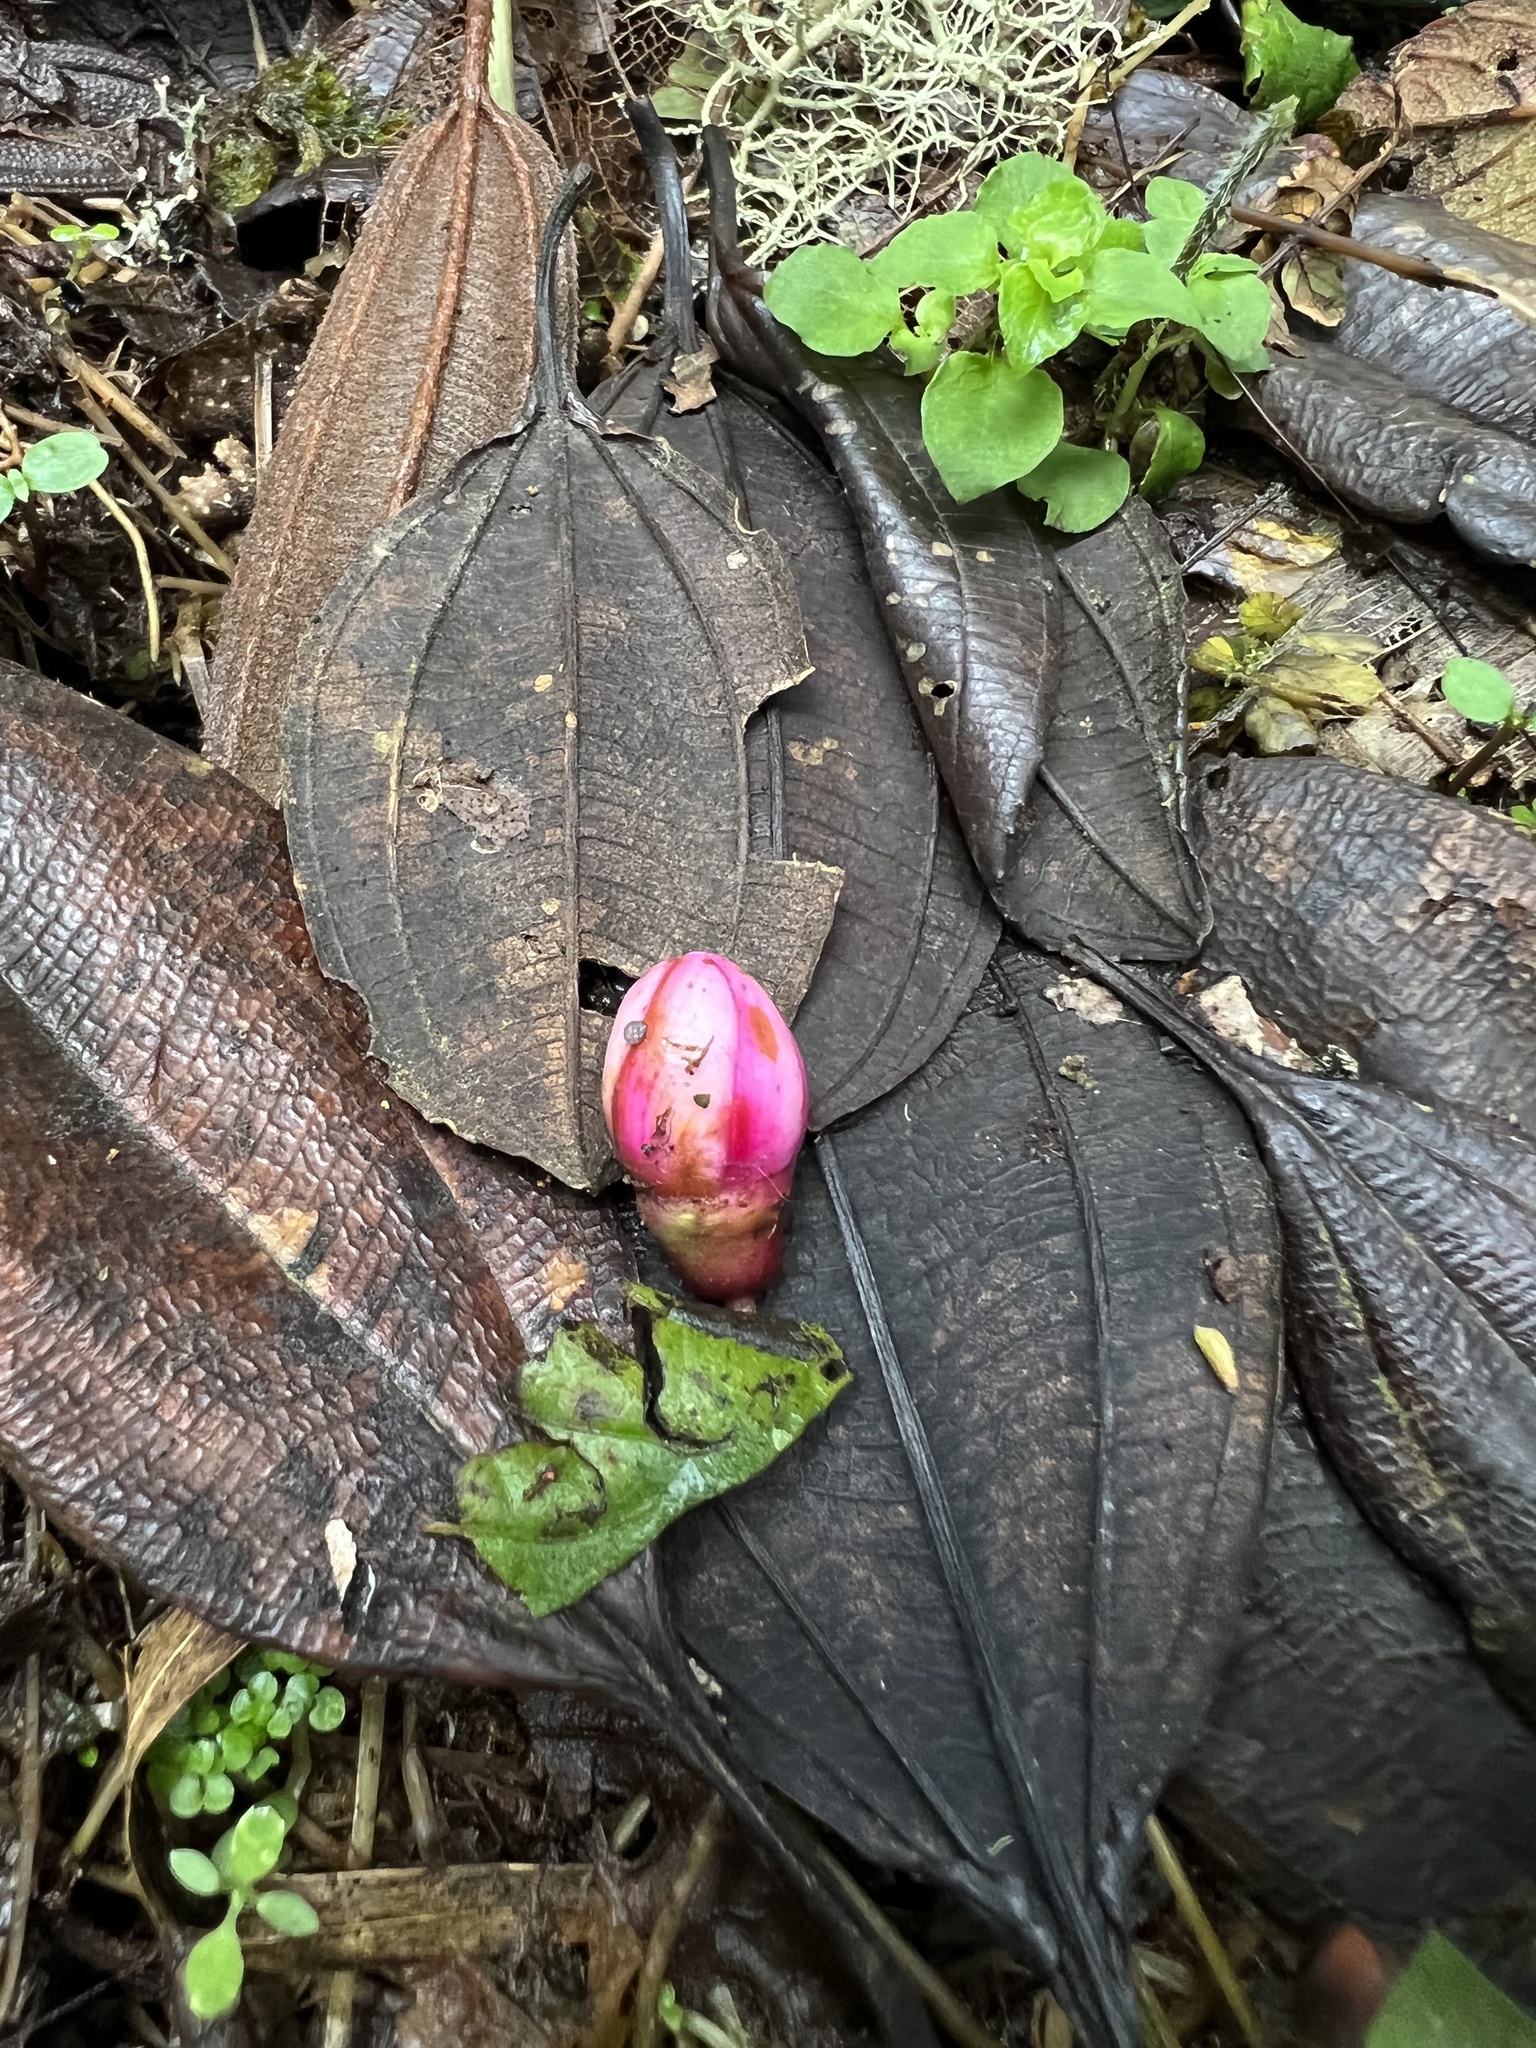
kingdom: Plantae
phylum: Tracheophyta
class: Magnoliopsida
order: Myrtales
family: Melastomataceae
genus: Axinaea
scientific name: Axinaea macrophylla
